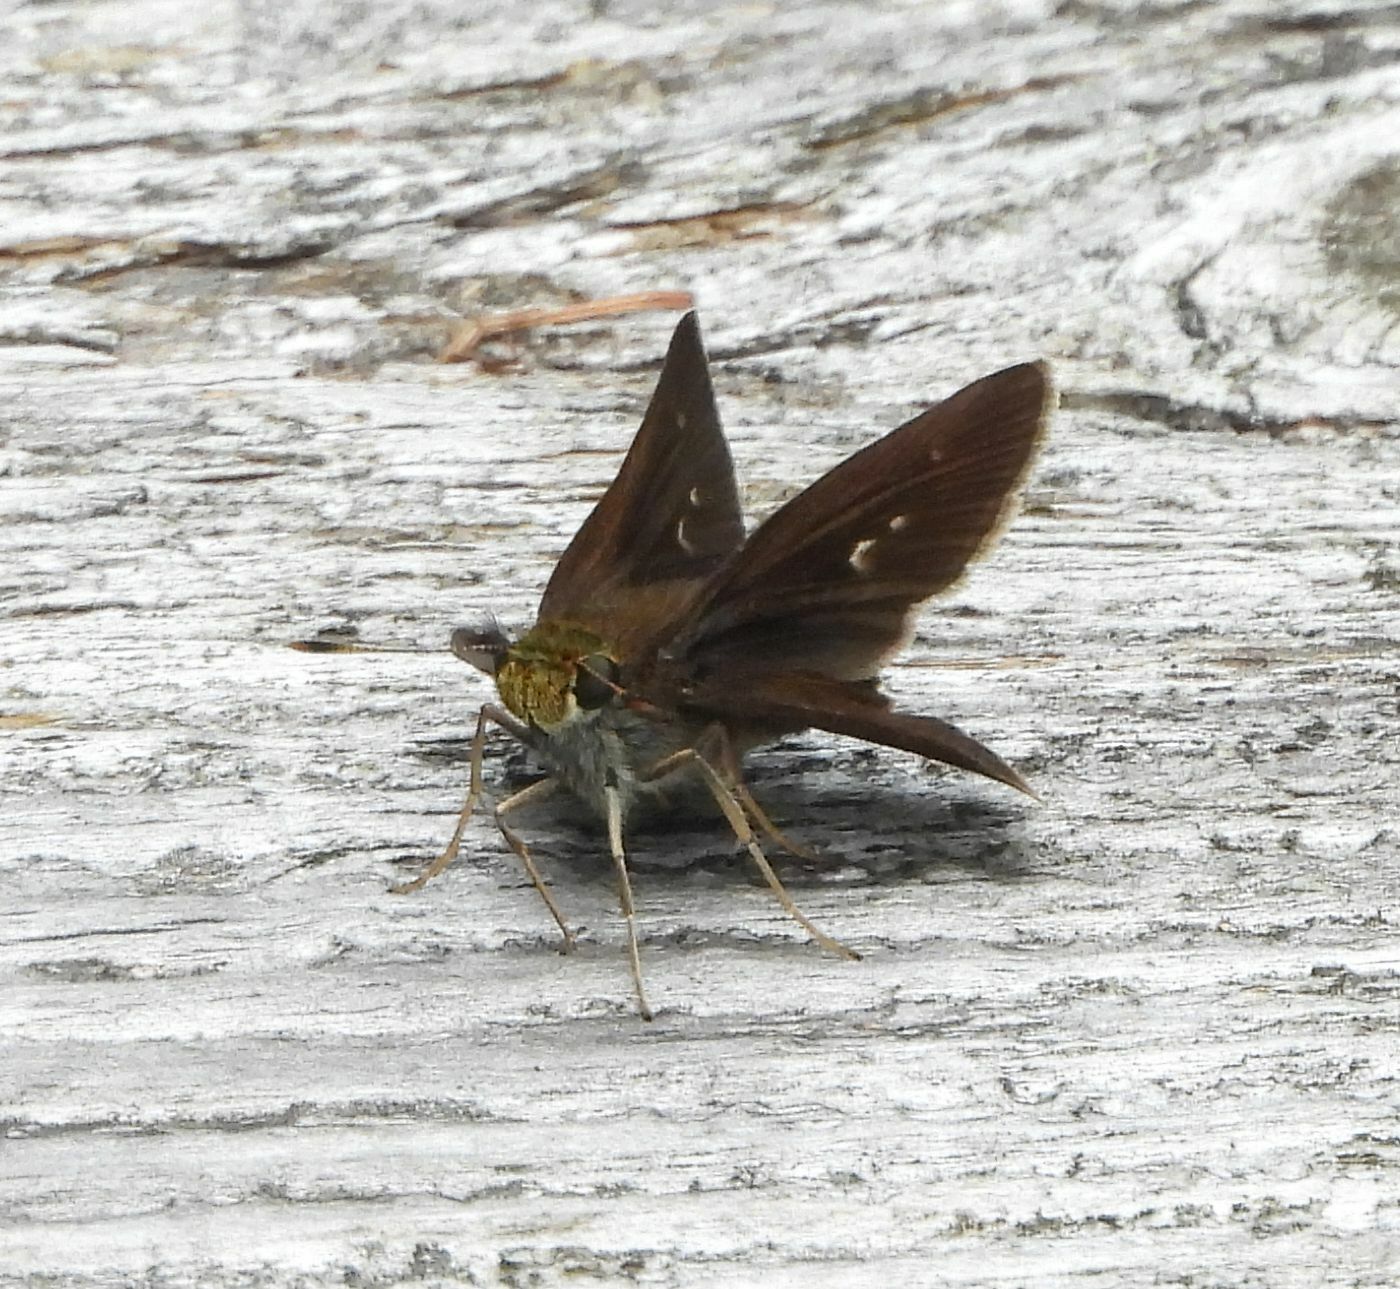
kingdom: Animalia
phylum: Arthropoda
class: Insecta
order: Lepidoptera
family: Hesperiidae
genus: Euphyes
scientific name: Euphyes vestris
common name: Dun skipper
